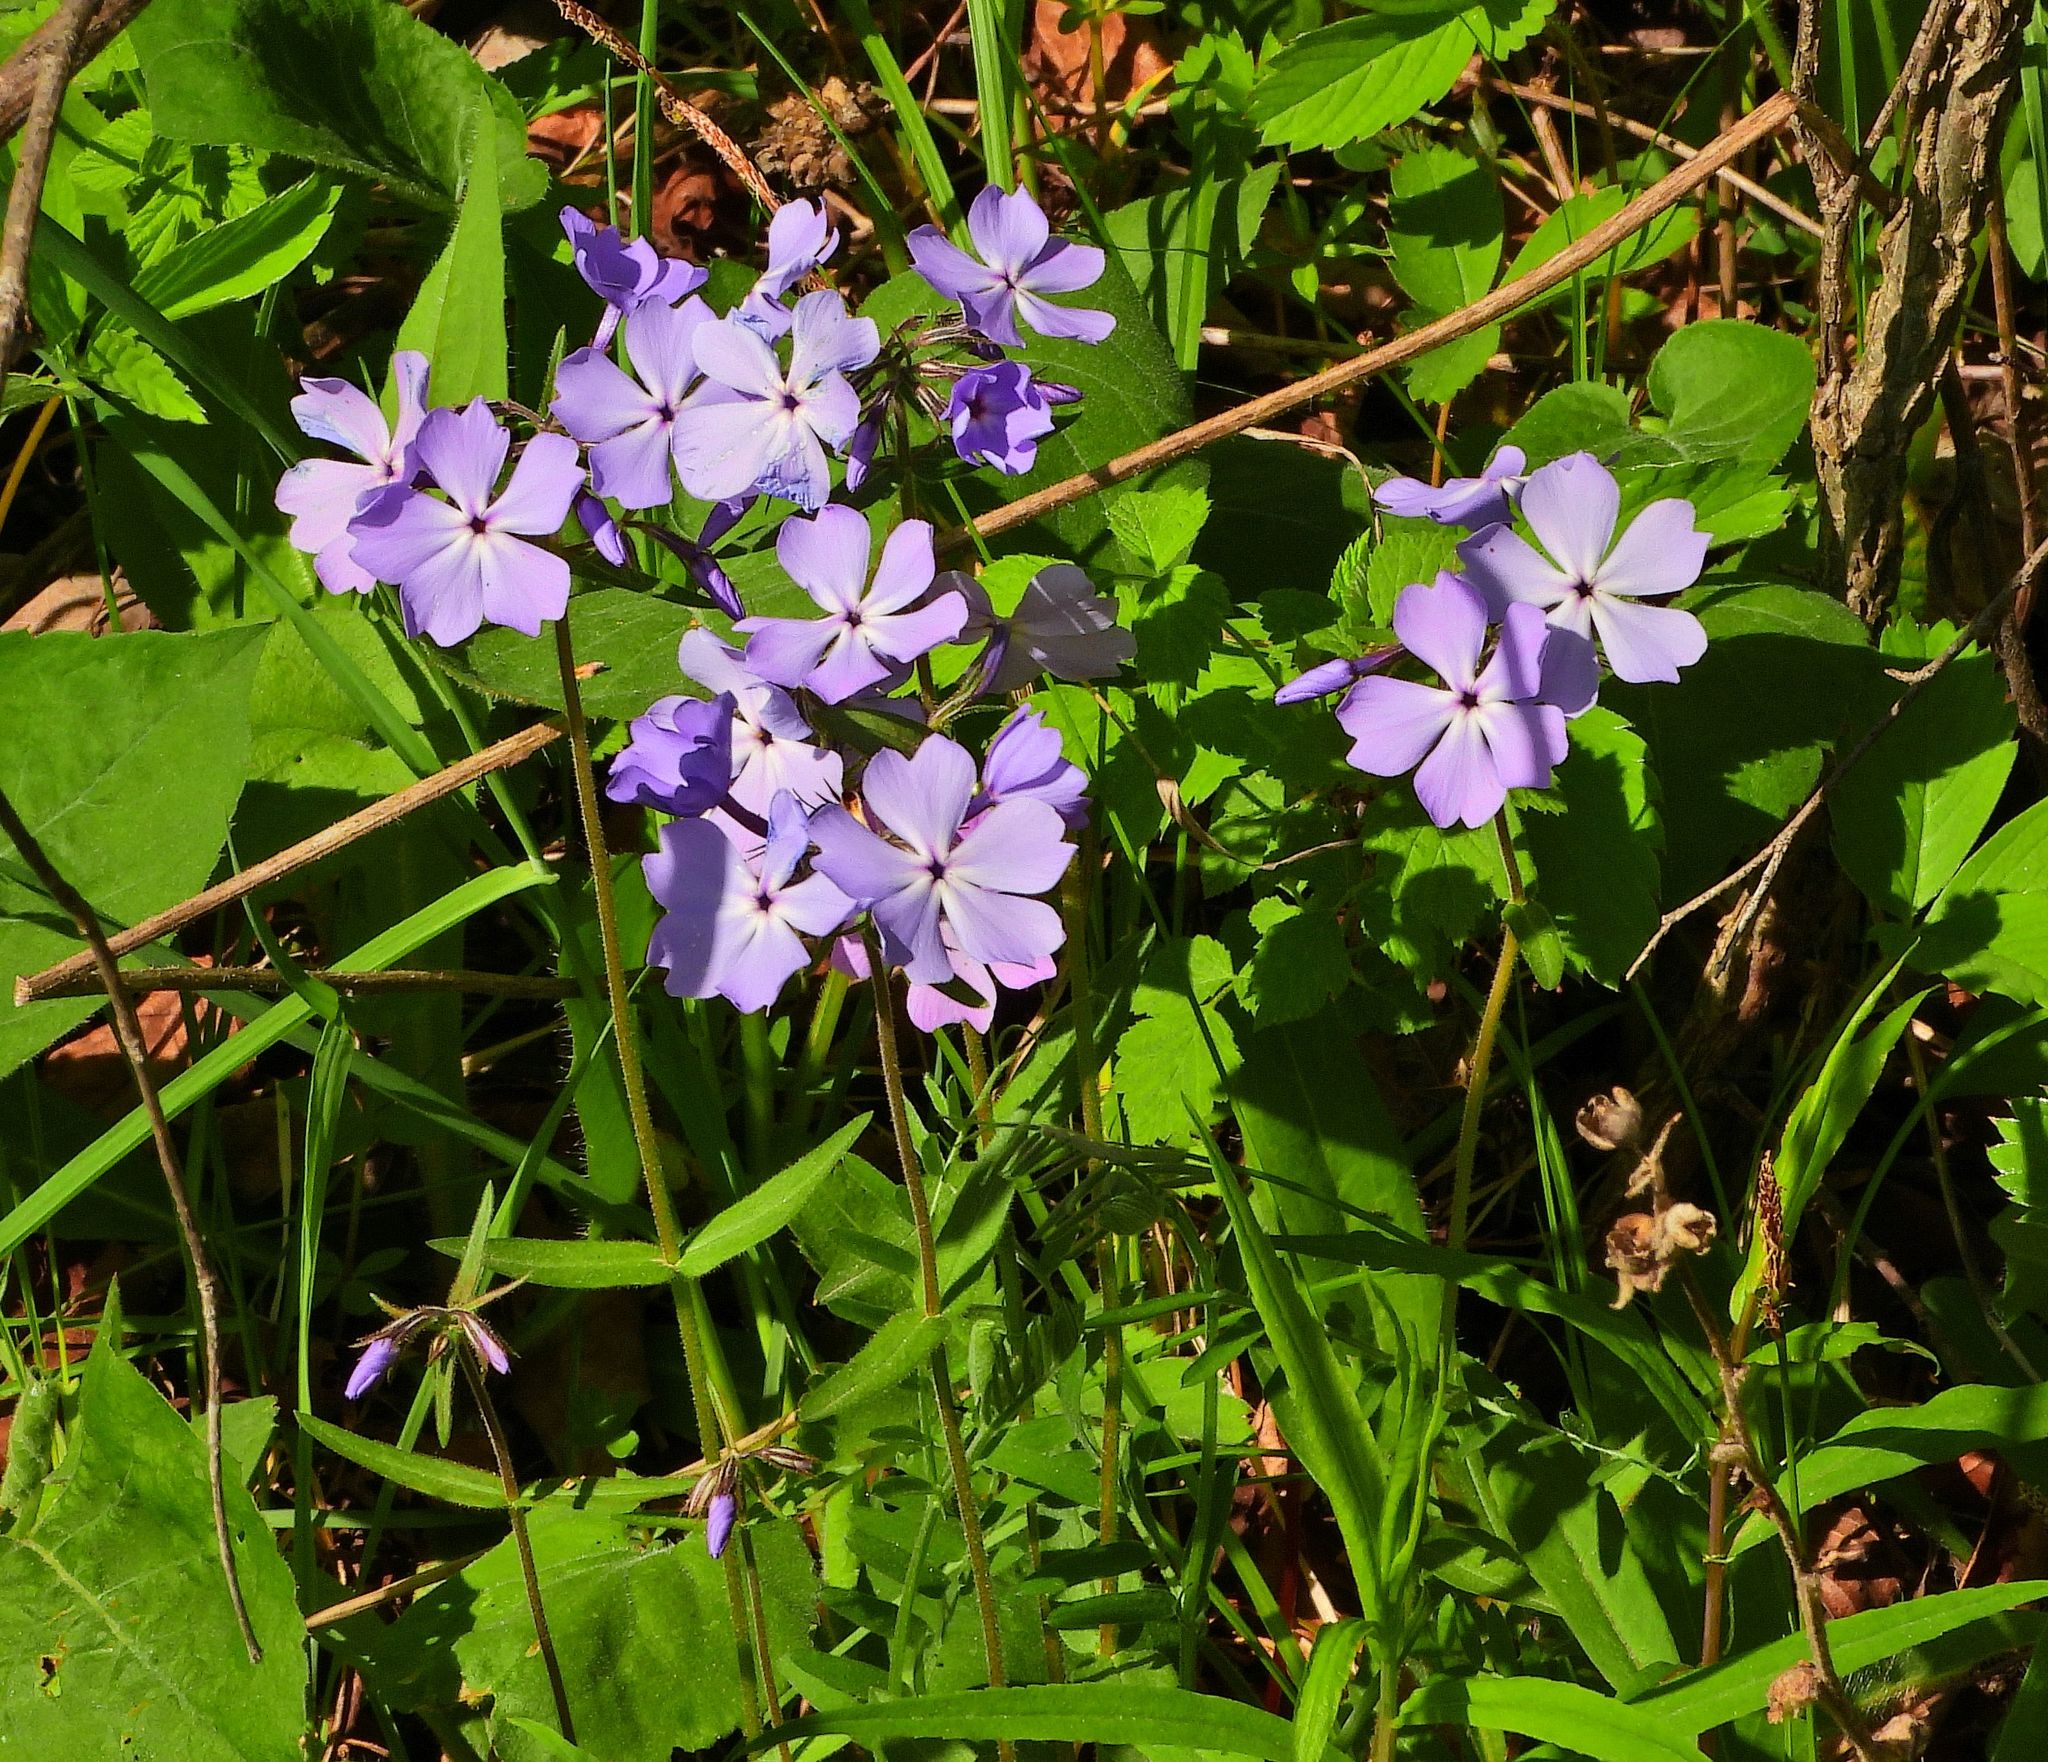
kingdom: Plantae
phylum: Tracheophyta
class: Magnoliopsida
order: Ericales
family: Polemoniaceae
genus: Phlox
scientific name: Phlox divaricata
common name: Blue phlox
